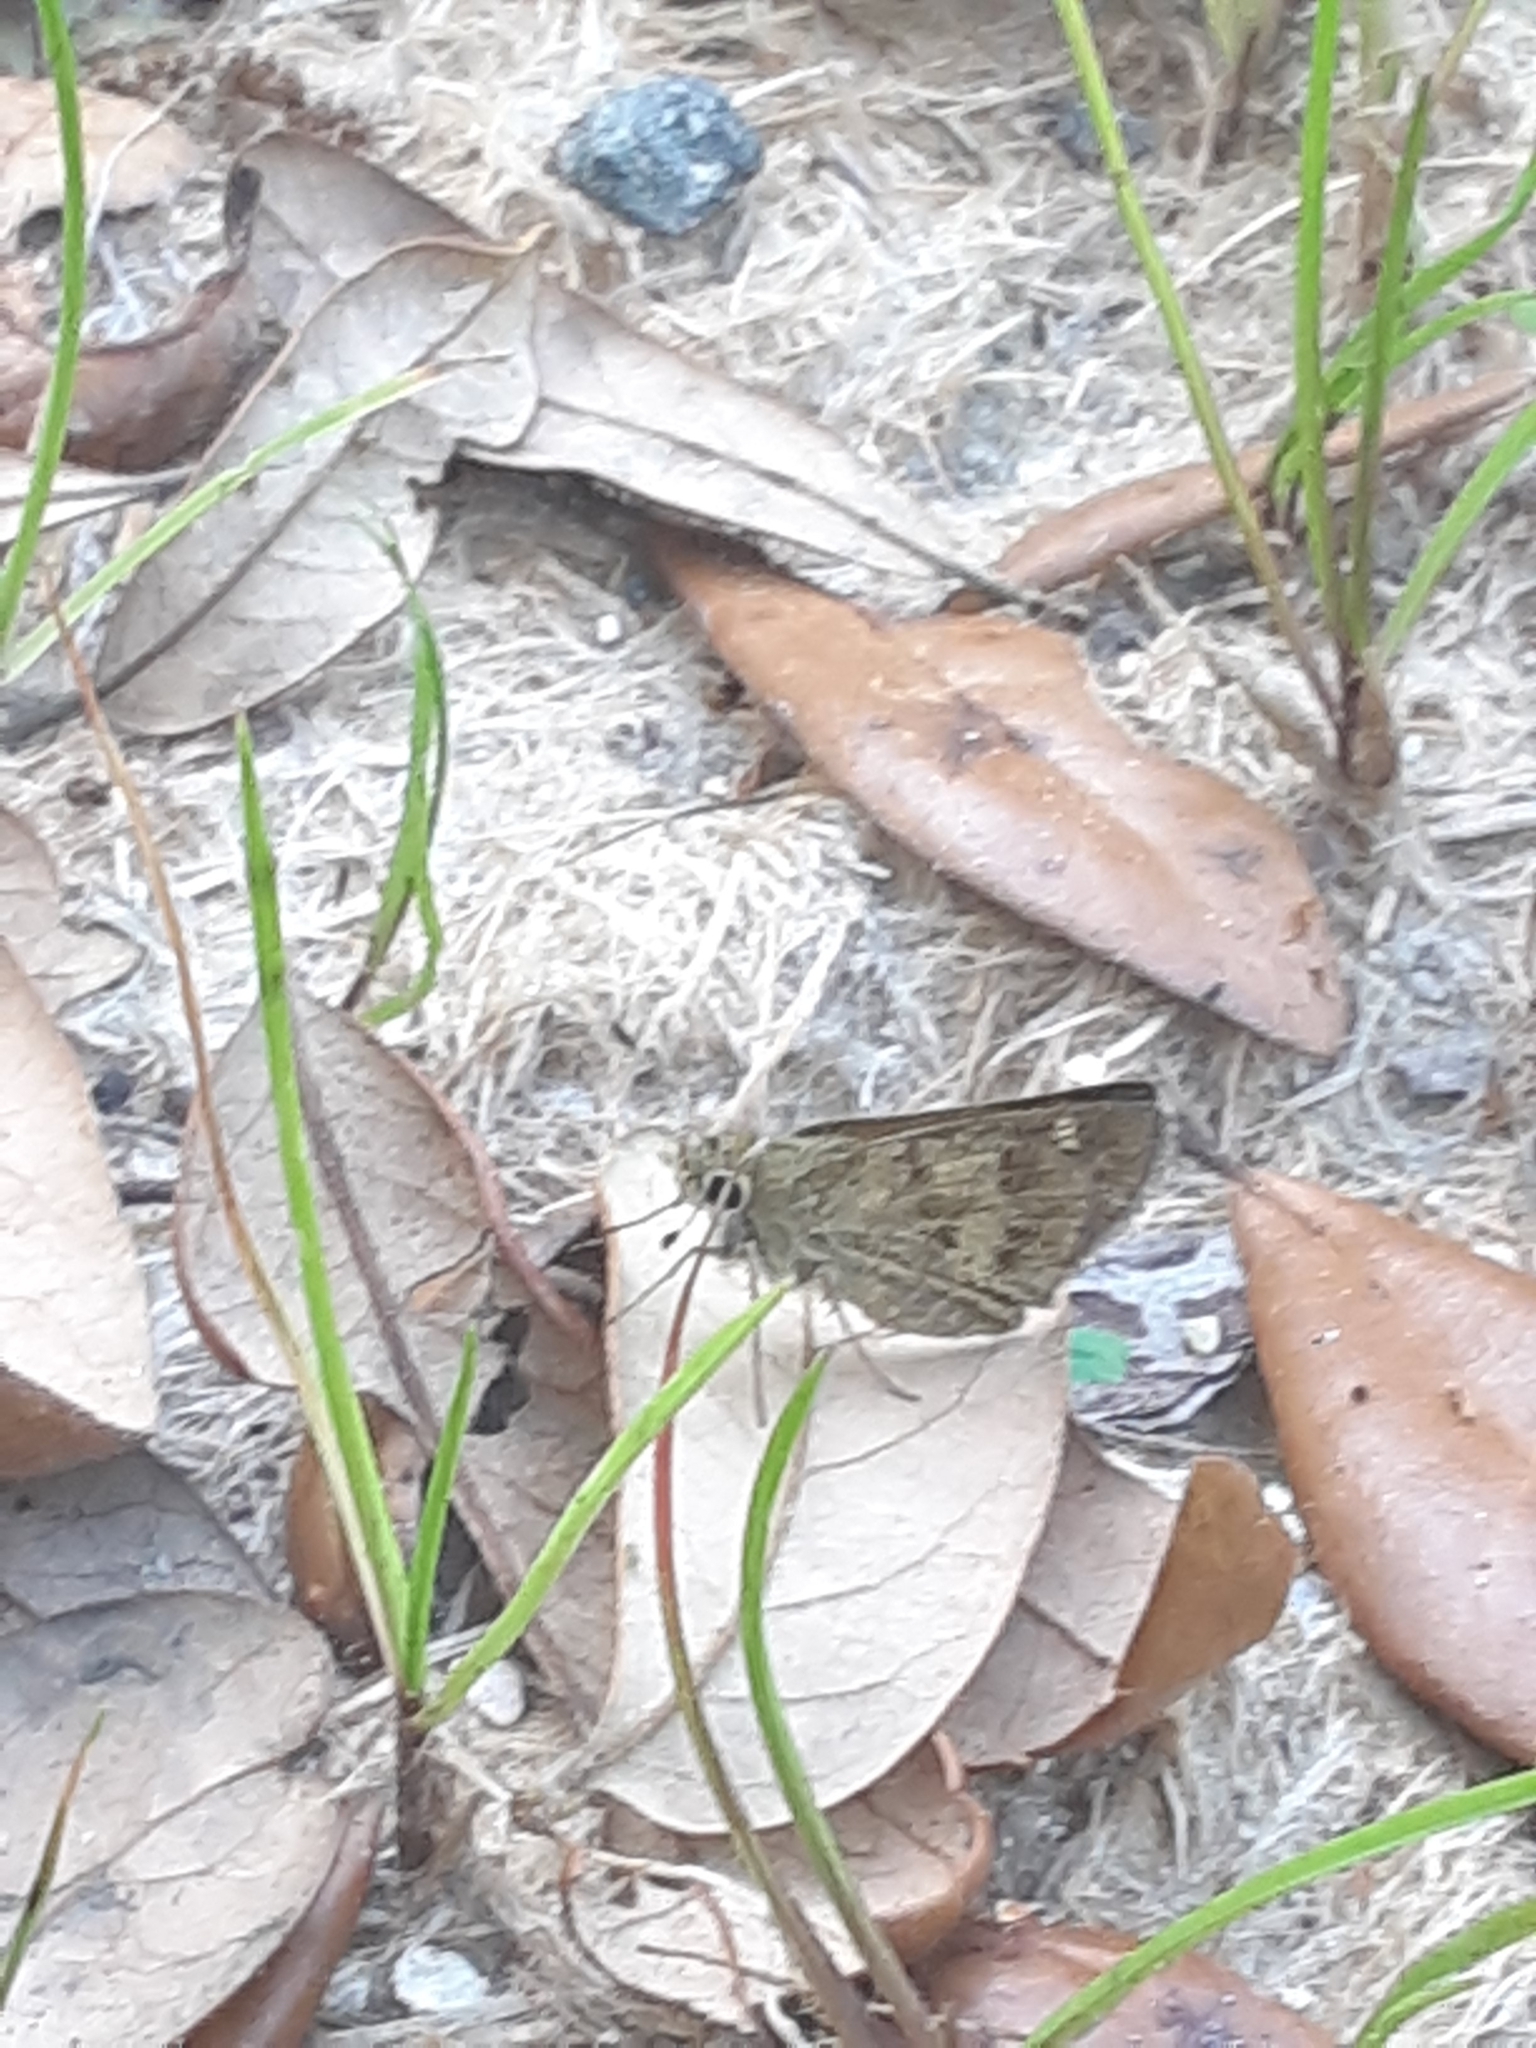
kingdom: Animalia
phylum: Arthropoda
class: Insecta
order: Lepidoptera
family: Hesperiidae
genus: Polites
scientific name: Polites vibex
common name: Whirlabout
